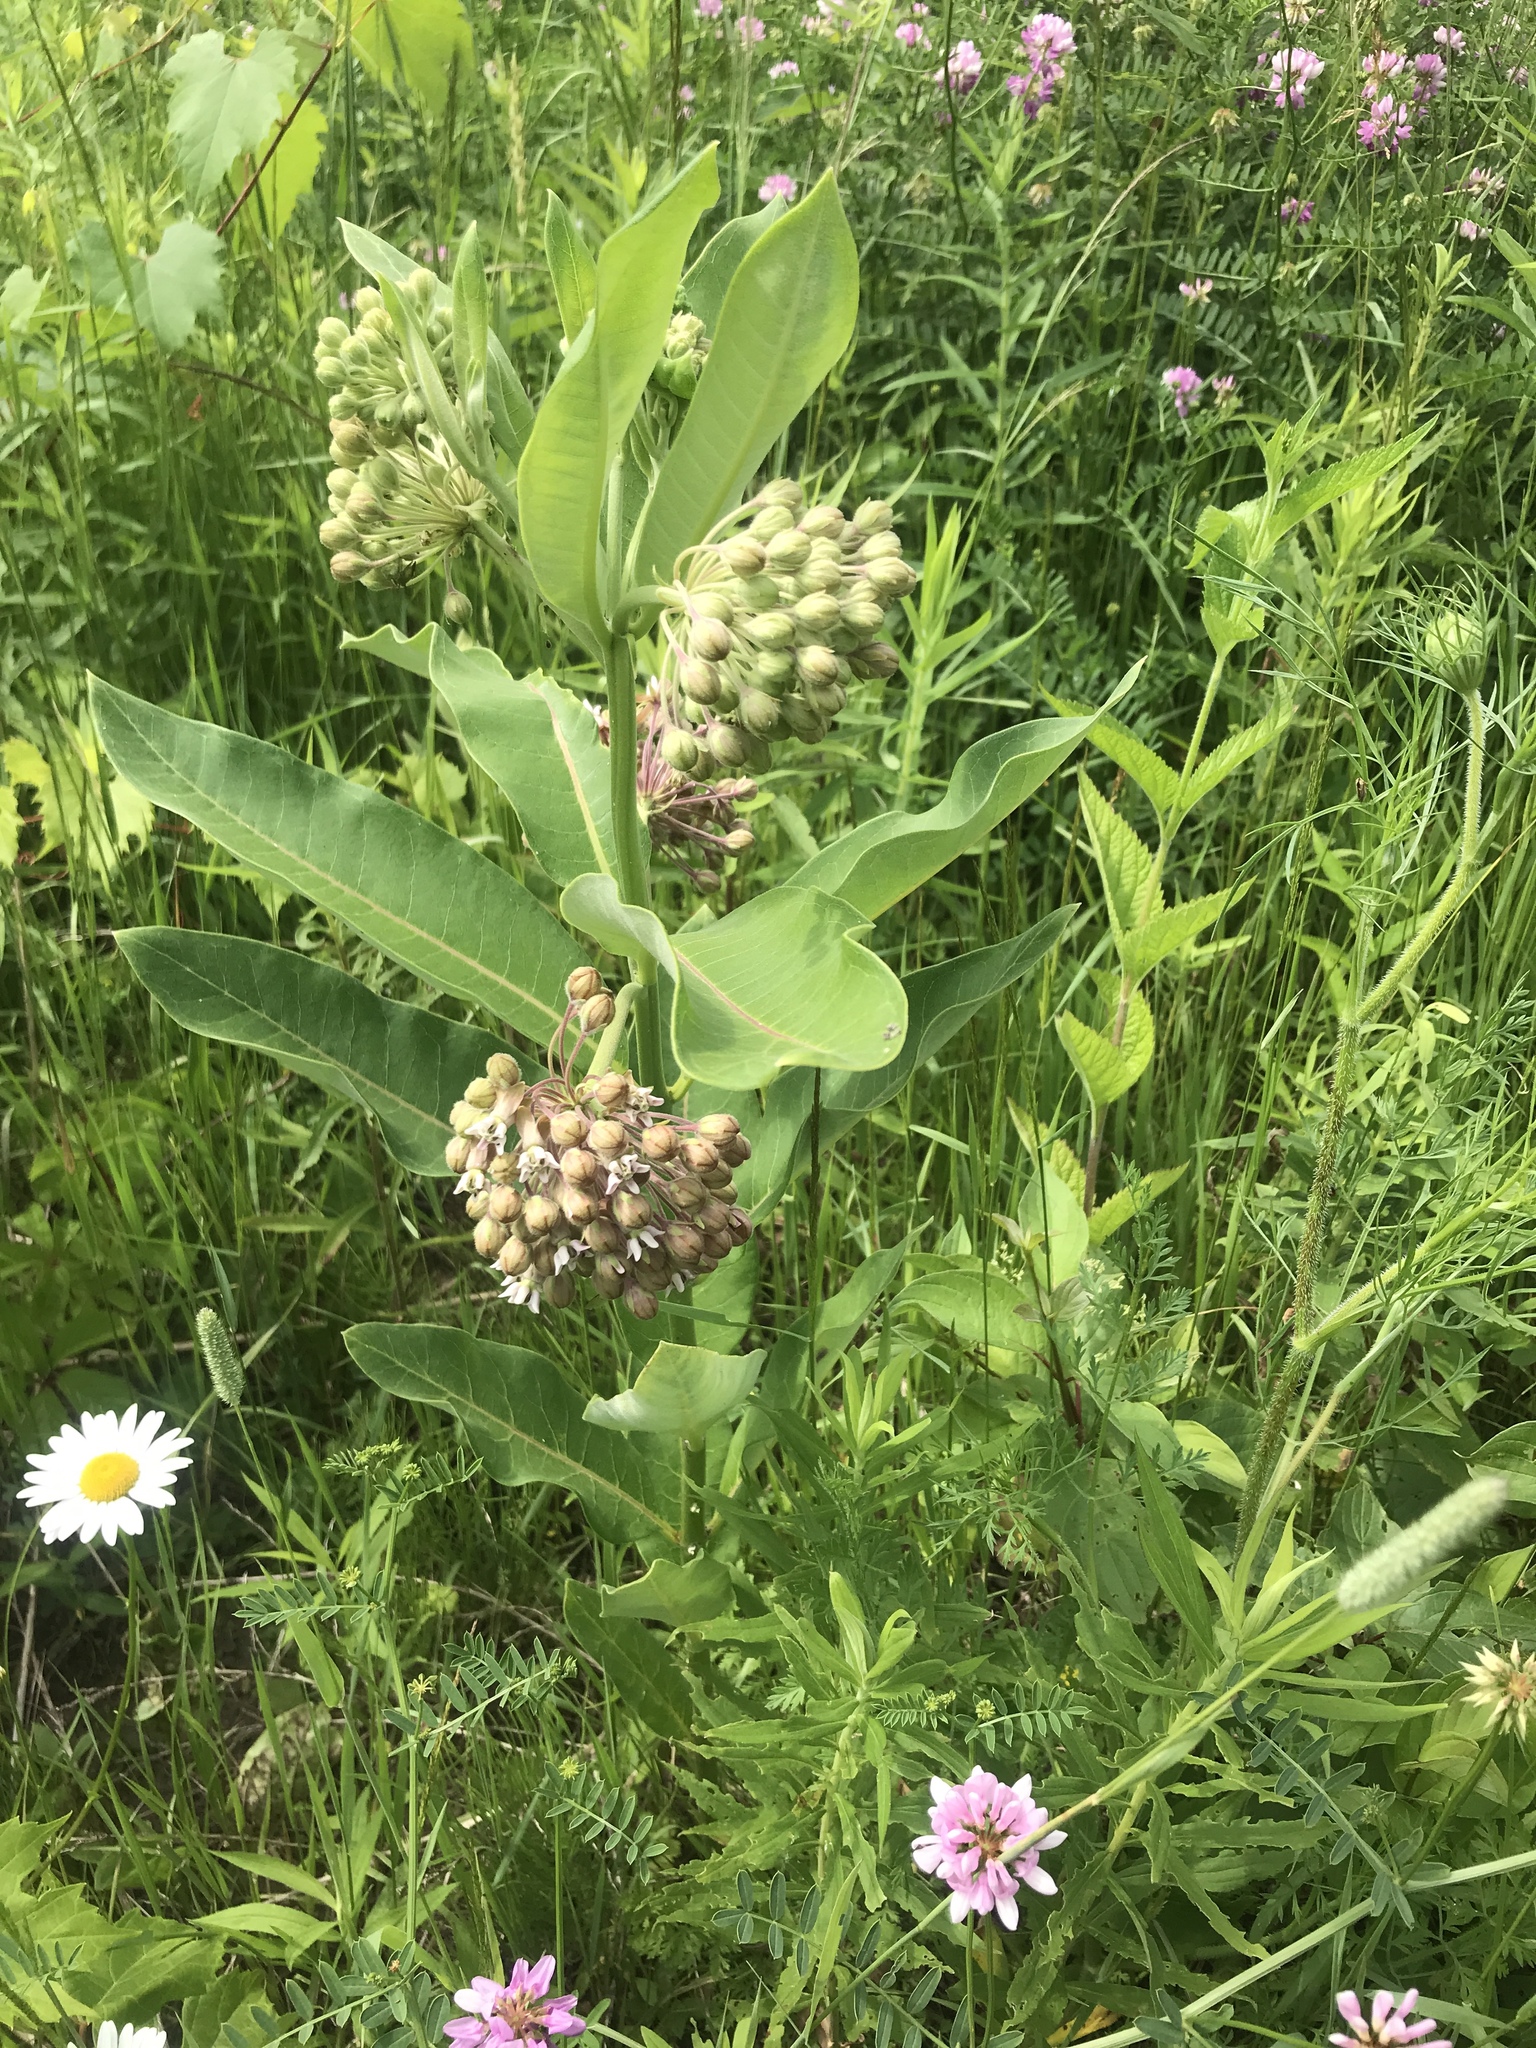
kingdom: Plantae
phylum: Tracheophyta
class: Magnoliopsida
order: Gentianales
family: Apocynaceae
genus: Asclepias
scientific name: Asclepias syriaca
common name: Common milkweed
